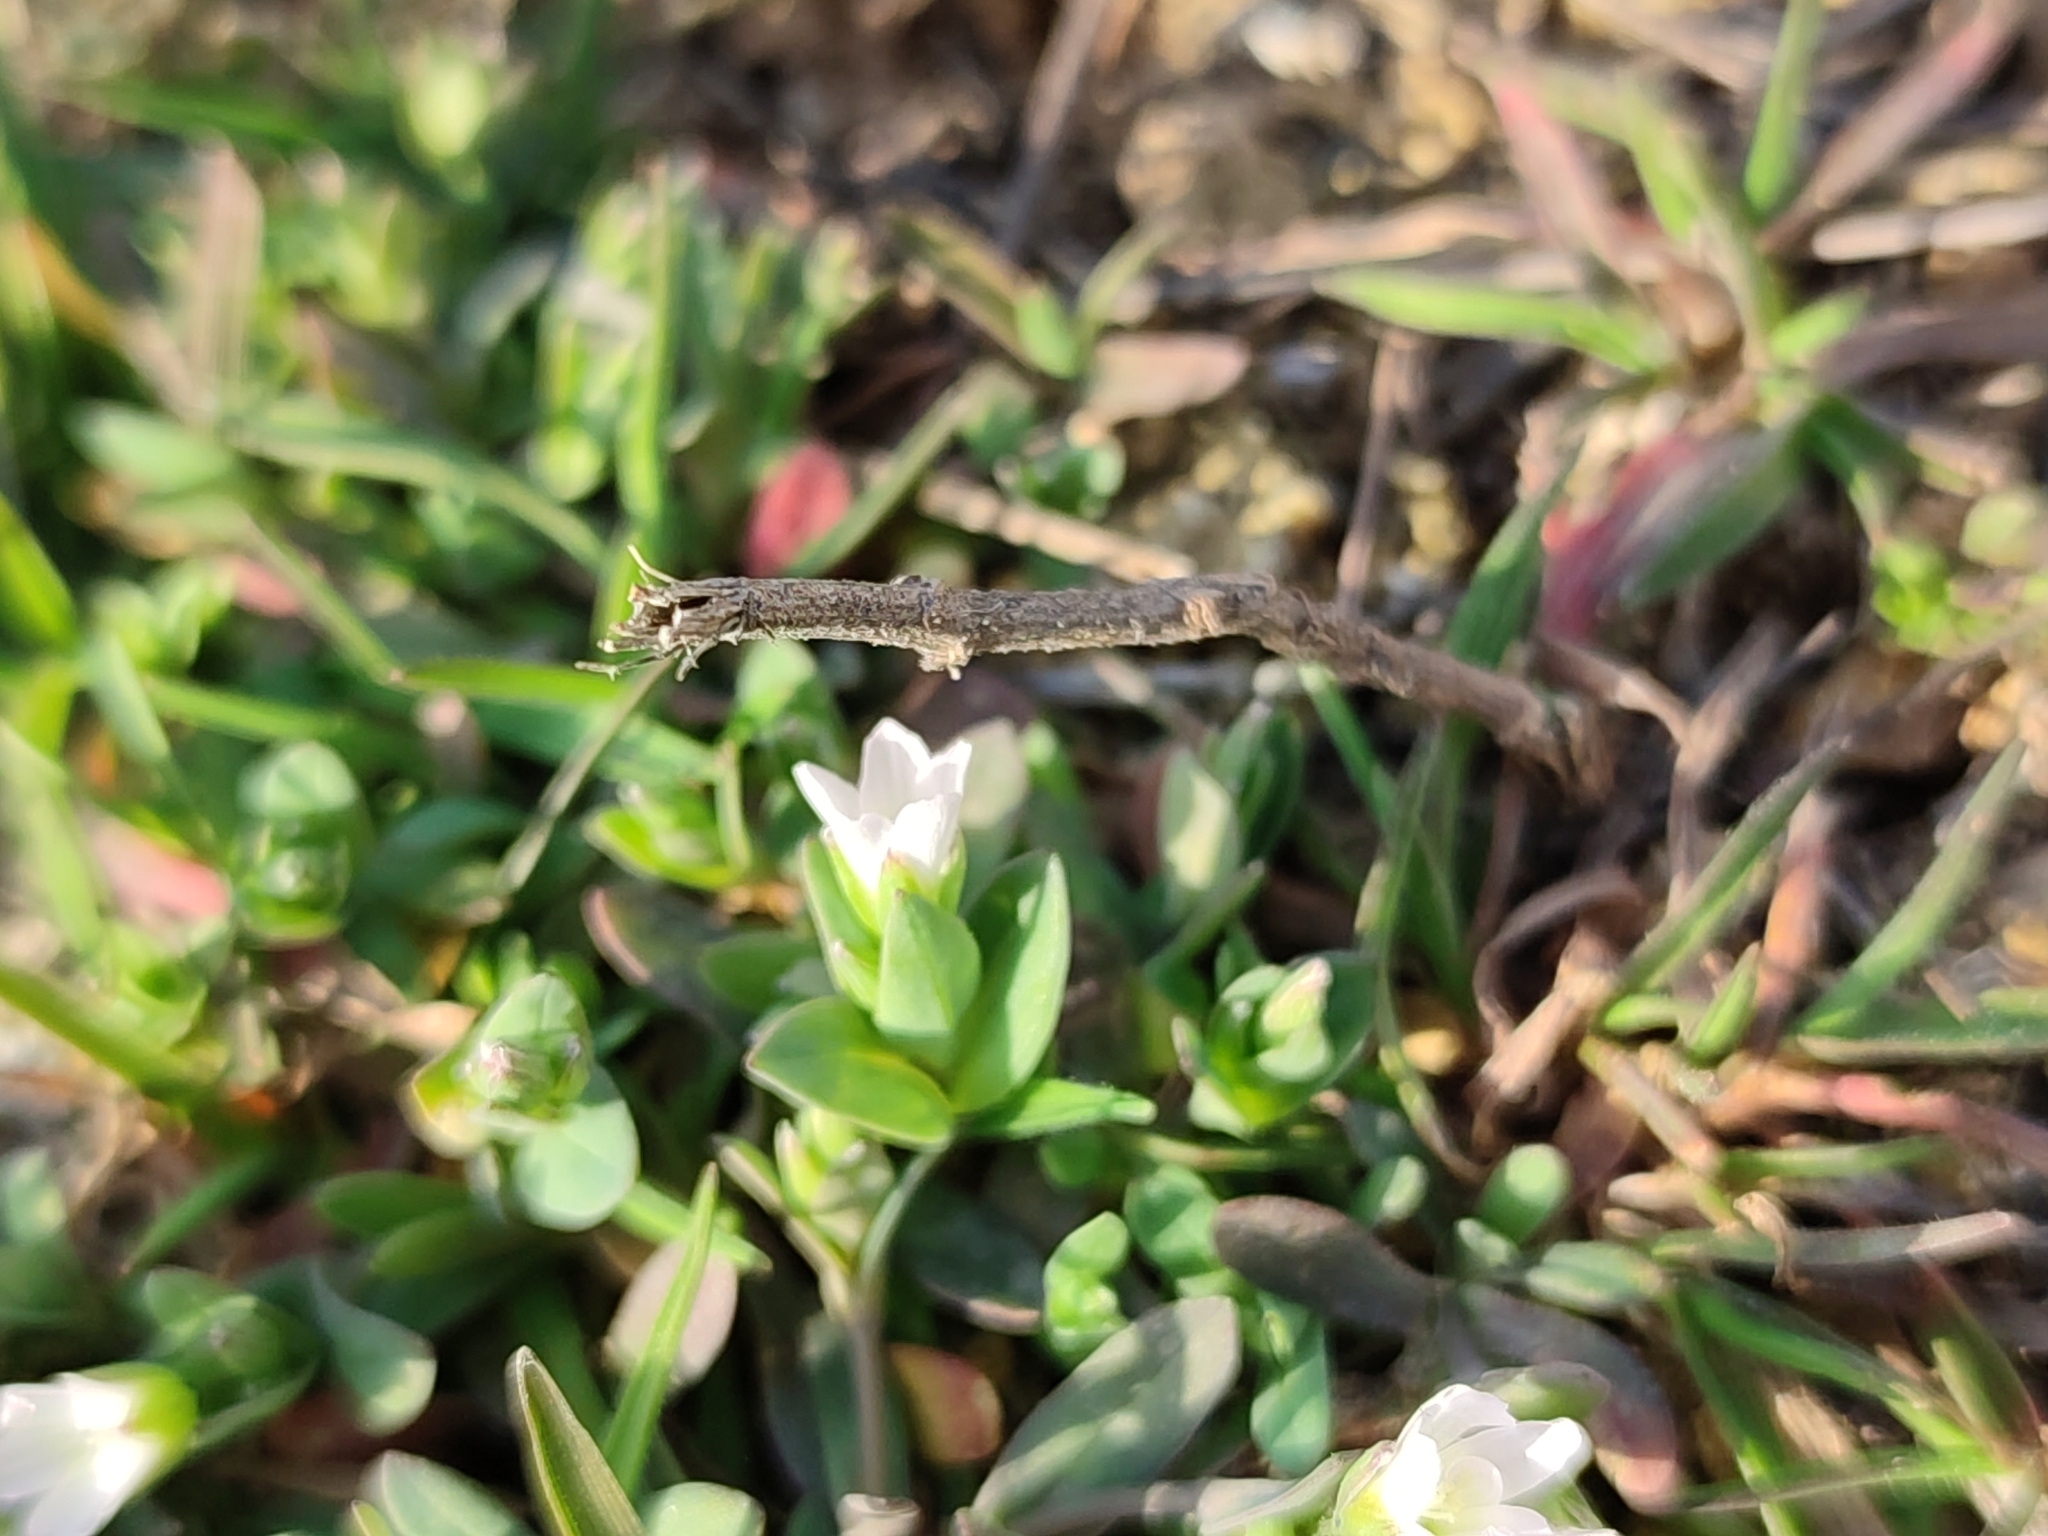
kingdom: Plantae
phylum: Tracheophyta
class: Magnoliopsida
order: Caryophyllales
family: Caryophyllaceae
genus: Holosteum
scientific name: Holosteum umbellatum
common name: Jagged chickweed
